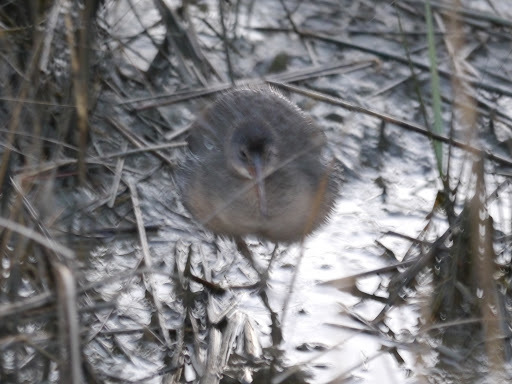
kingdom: Animalia
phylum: Chordata
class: Aves
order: Gruiformes
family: Rallidae
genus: Rallus
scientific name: Rallus crepitans
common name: Clapper rail
